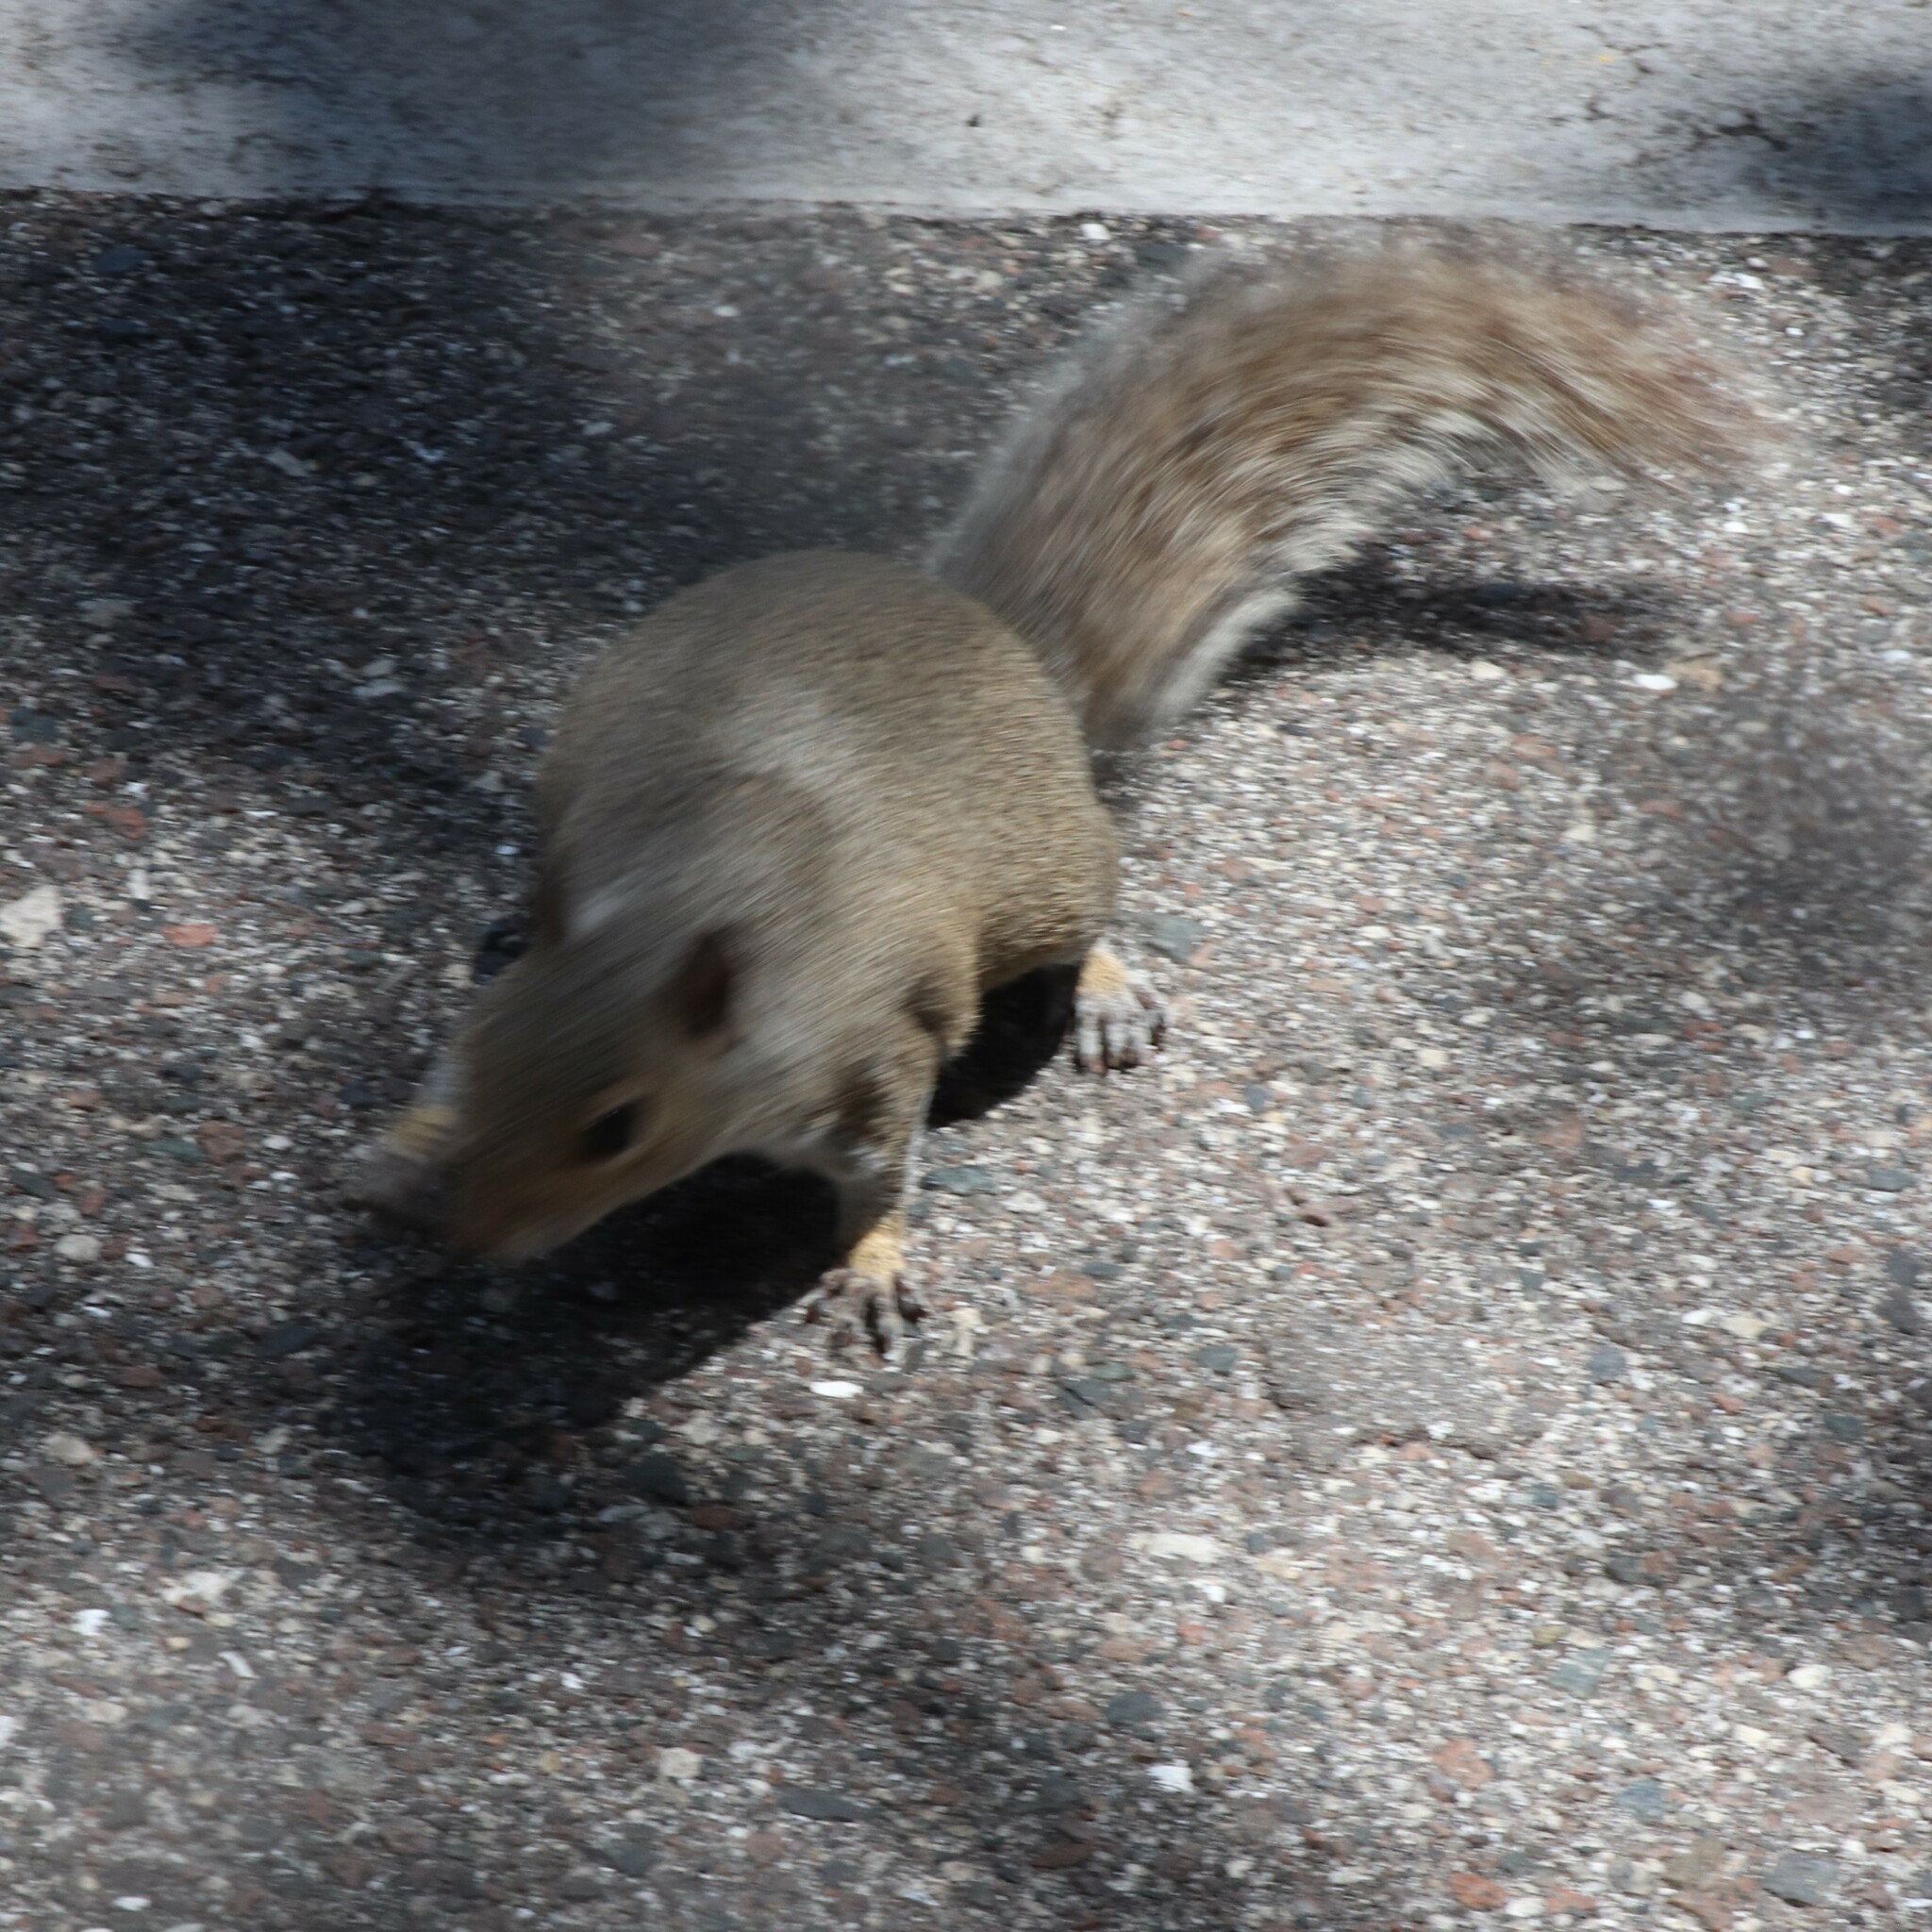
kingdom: Animalia
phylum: Chordata
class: Mammalia
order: Rodentia
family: Sciuridae
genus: Sciurus
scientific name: Sciurus carolinensis
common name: Eastern gray squirrel
